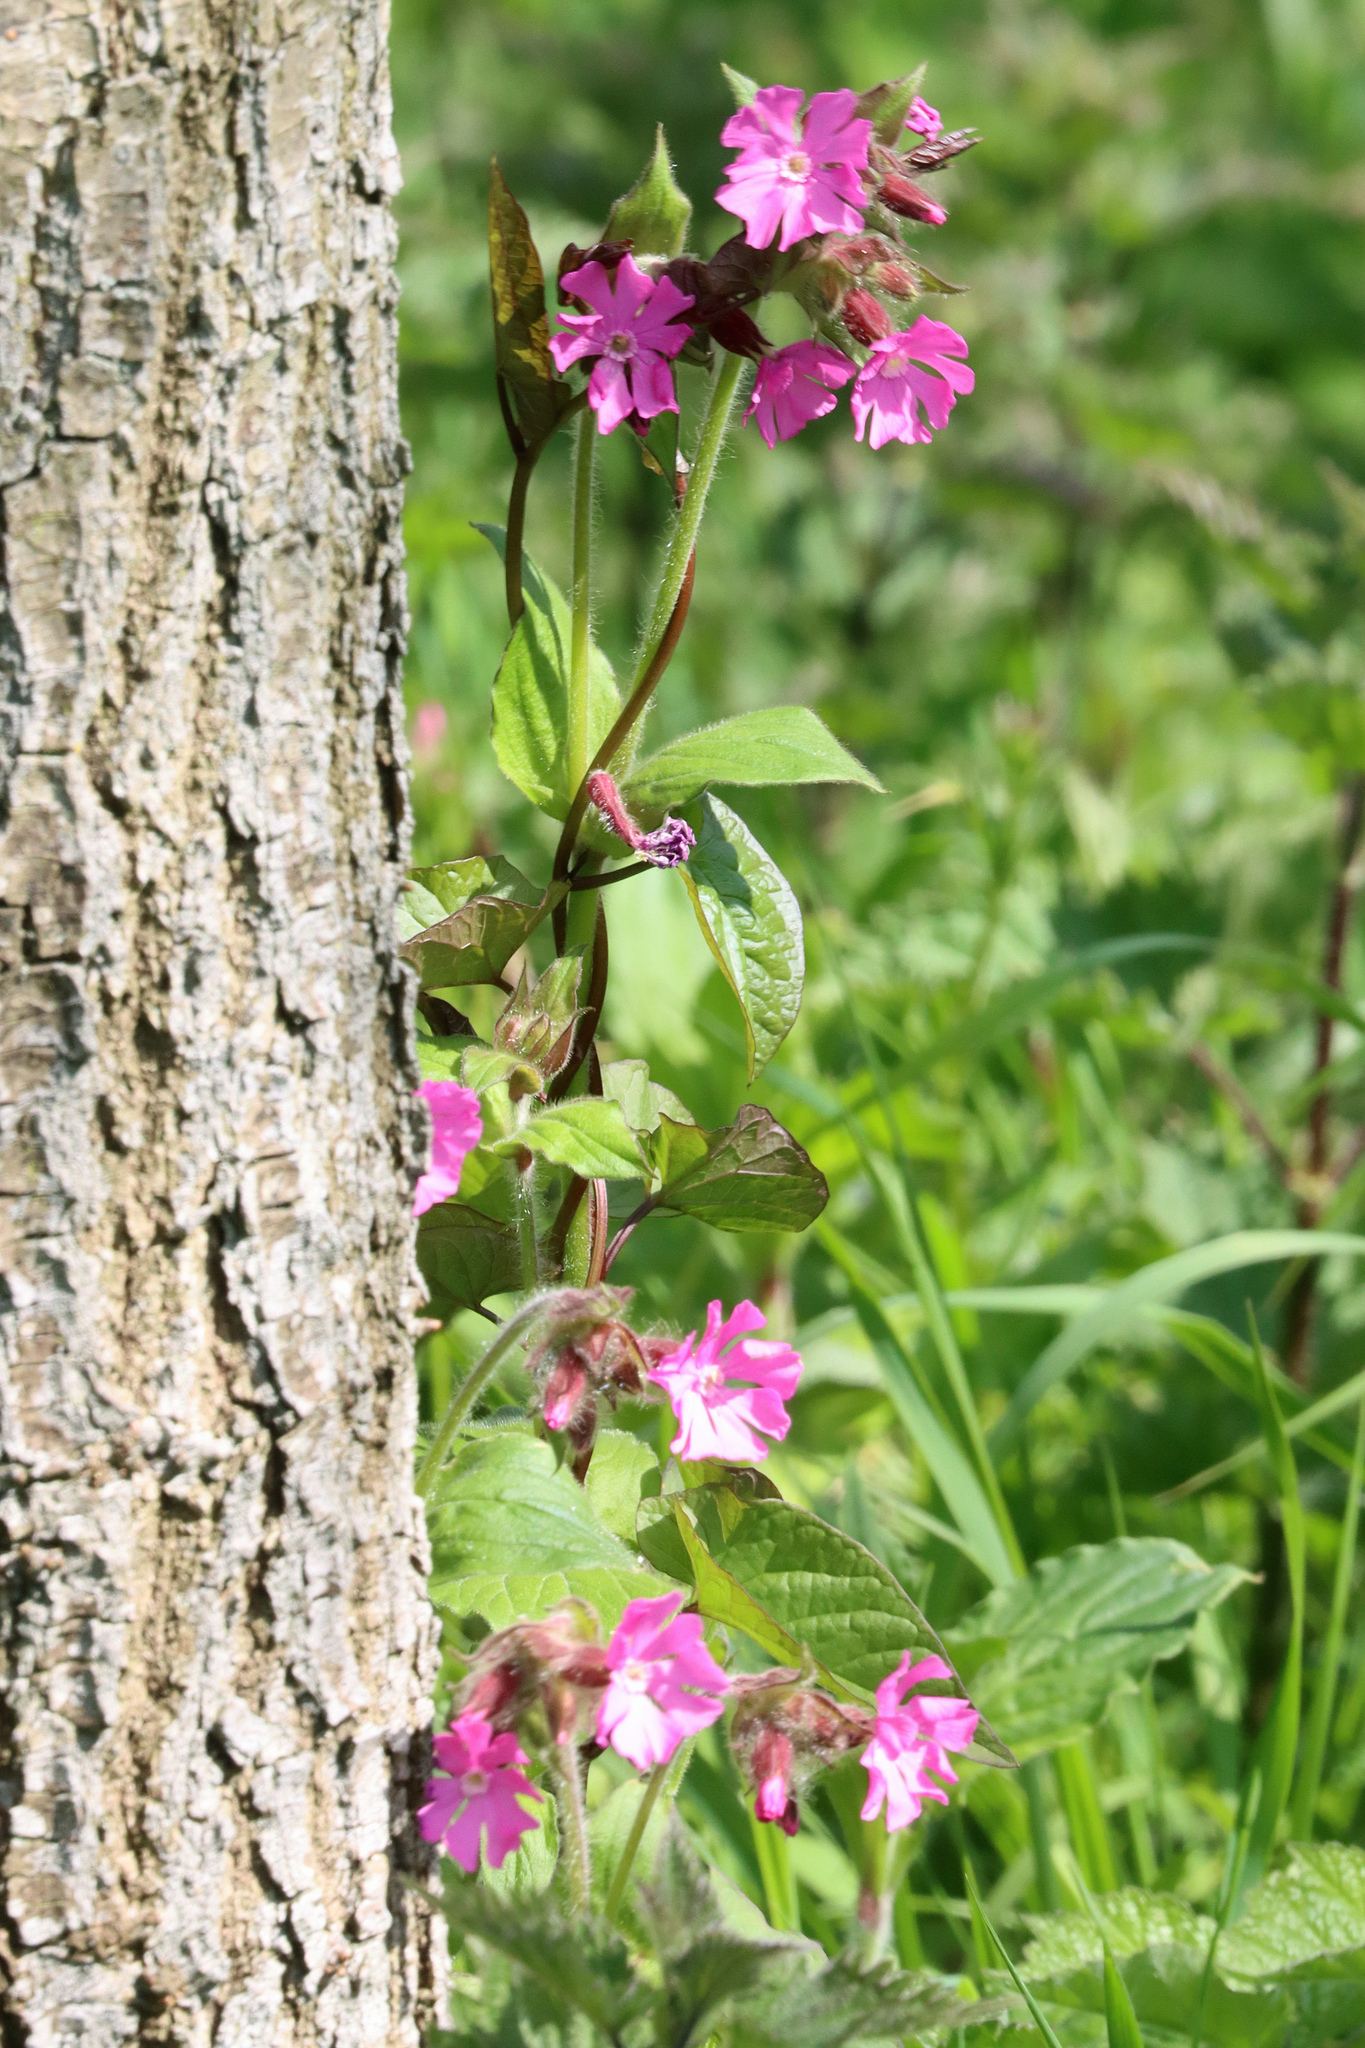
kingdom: Plantae
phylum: Tracheophyta
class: Magnoliopsida
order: Caryophyllales
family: Caryophyllaceae
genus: Silene
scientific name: Silene dioica
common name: Red campion
